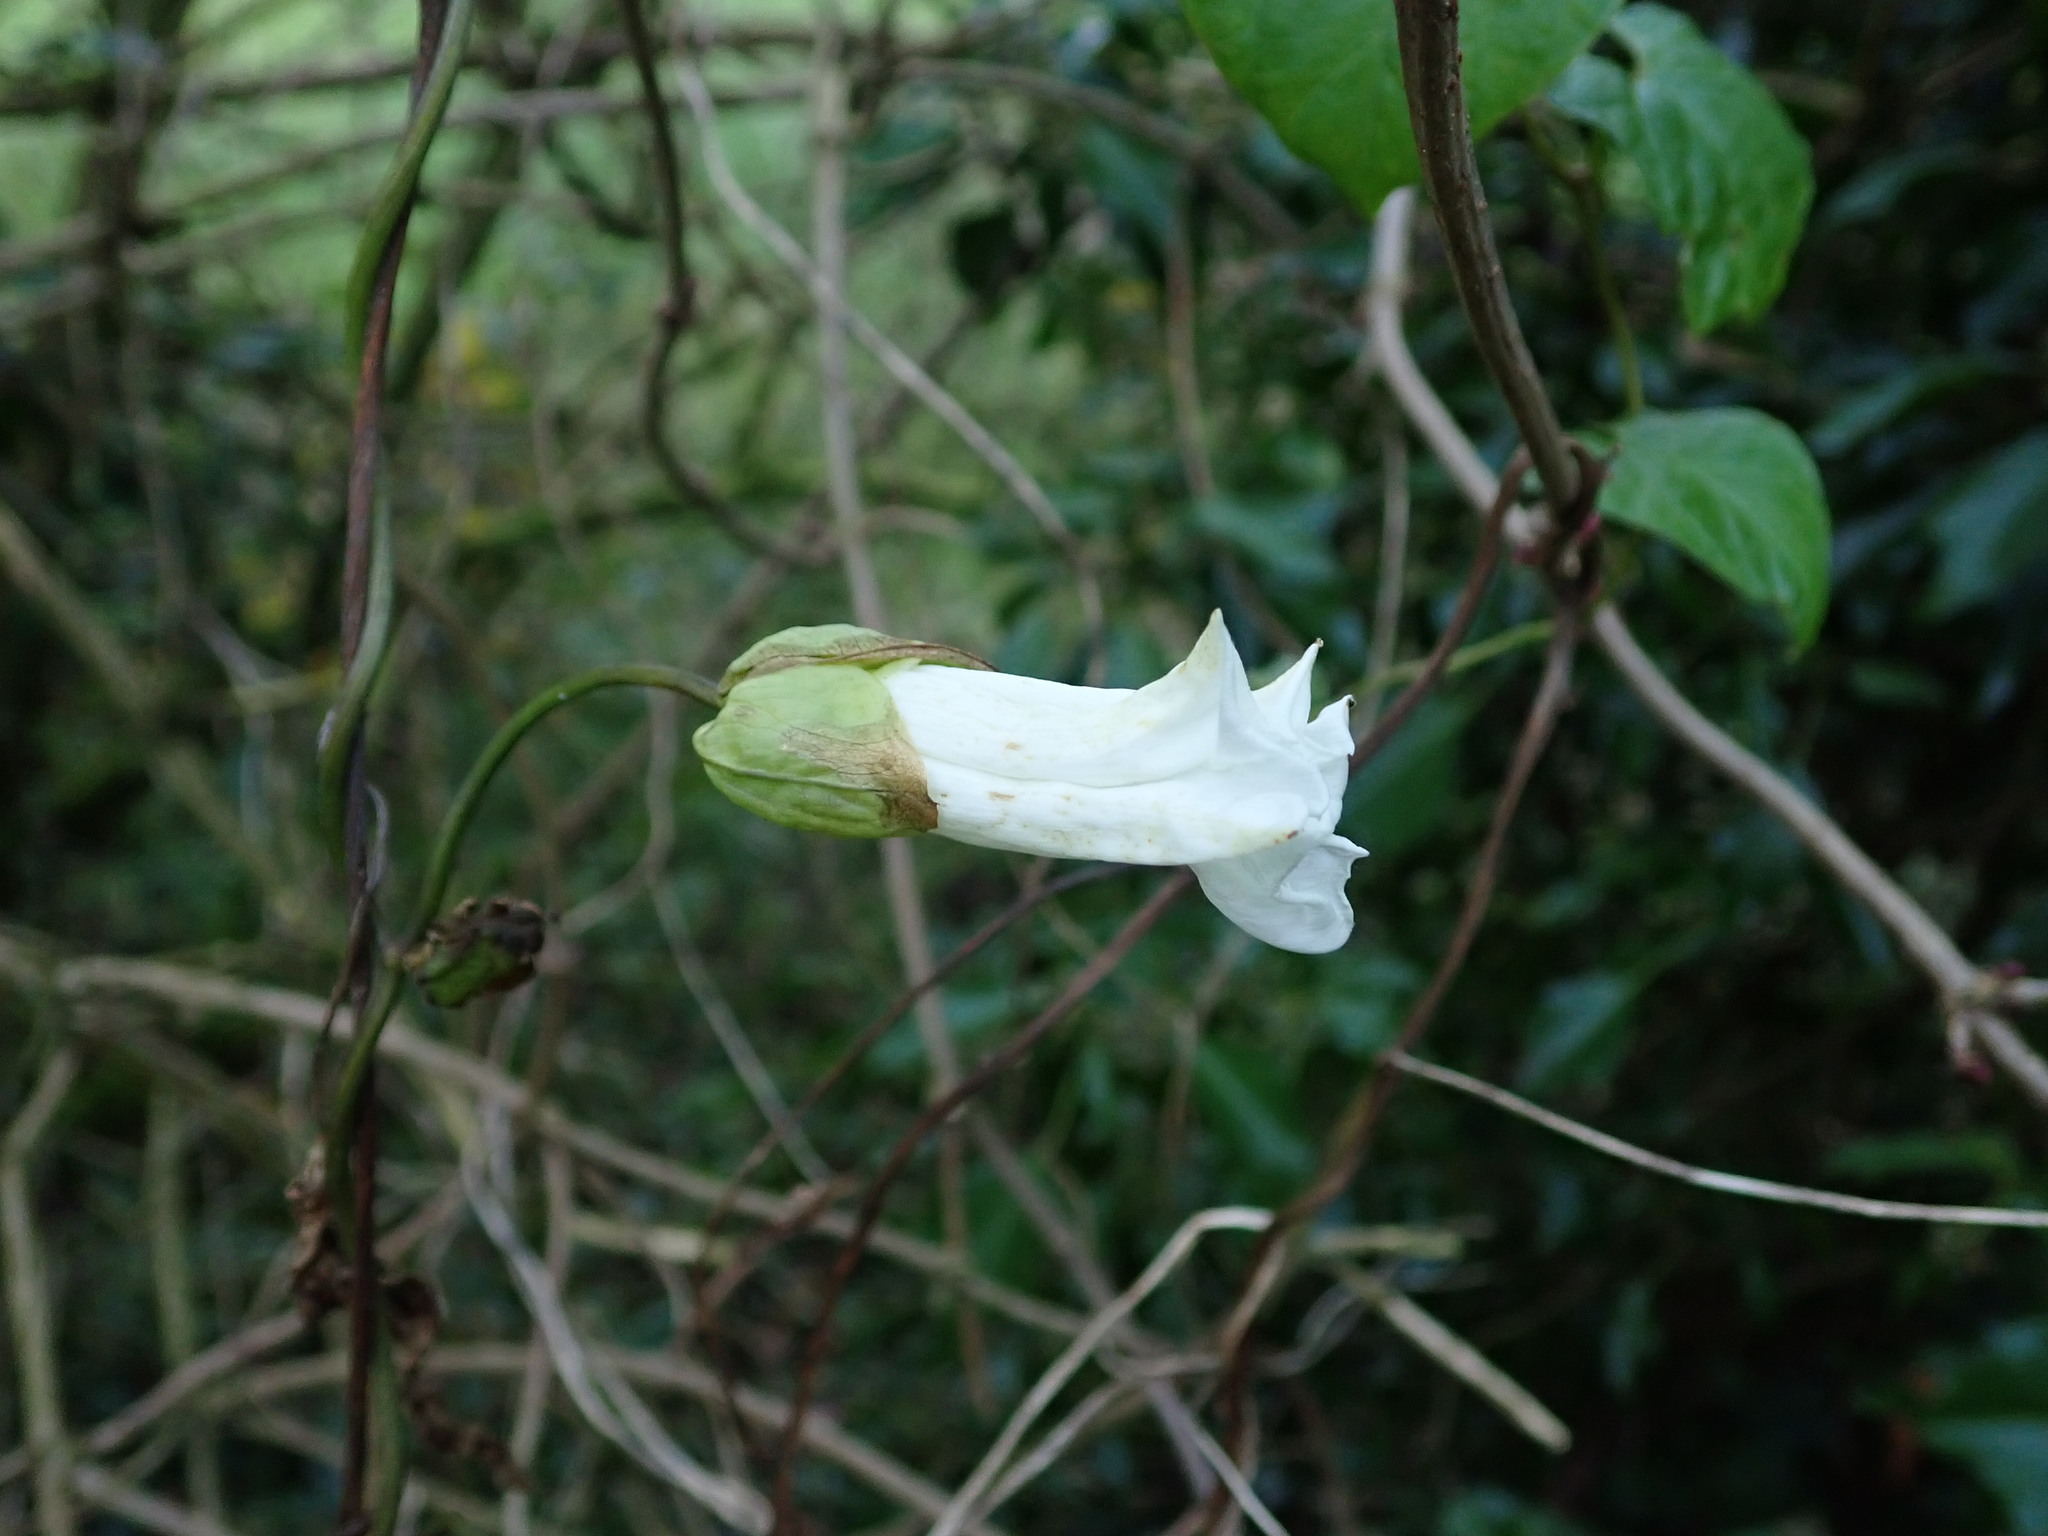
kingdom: Plantae
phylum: Tracheophyta
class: Magnoliopsida
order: Solanales
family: Convolvulaceae
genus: Calystegia
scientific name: Calystegia silvatica
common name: Large bindweed
